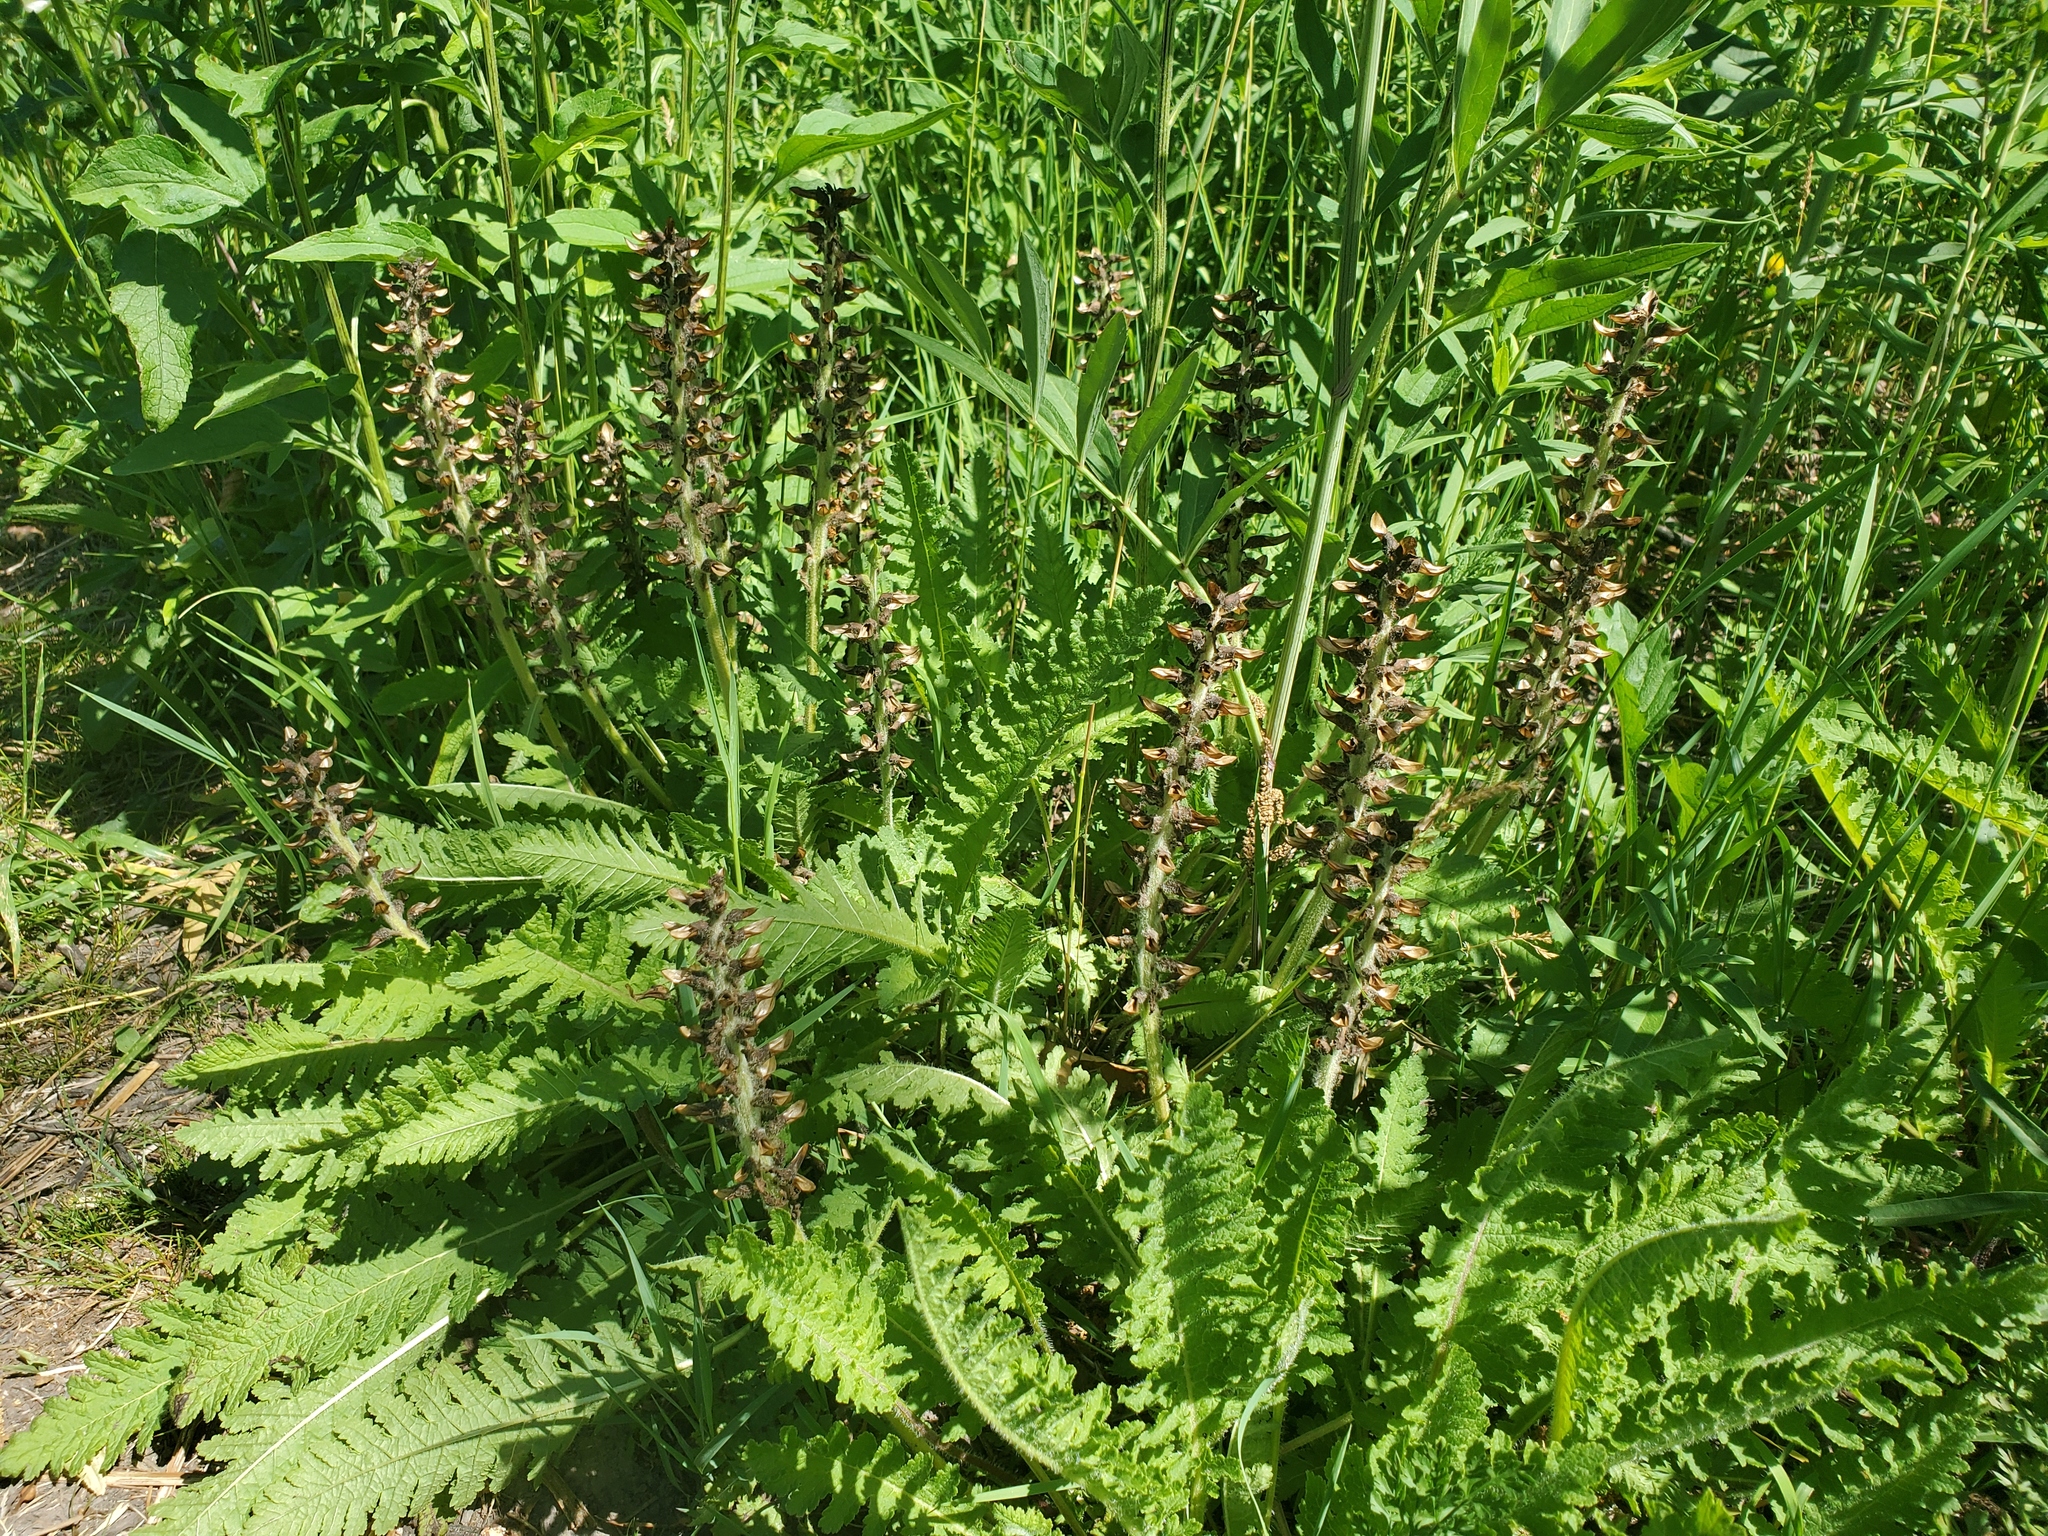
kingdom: Plantae
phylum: Tracheophyta
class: Magnoliopsida
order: Lamiales
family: Orobanchaceae
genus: Pedicularis
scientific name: Pedicularis canadensis
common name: Early lousewort
